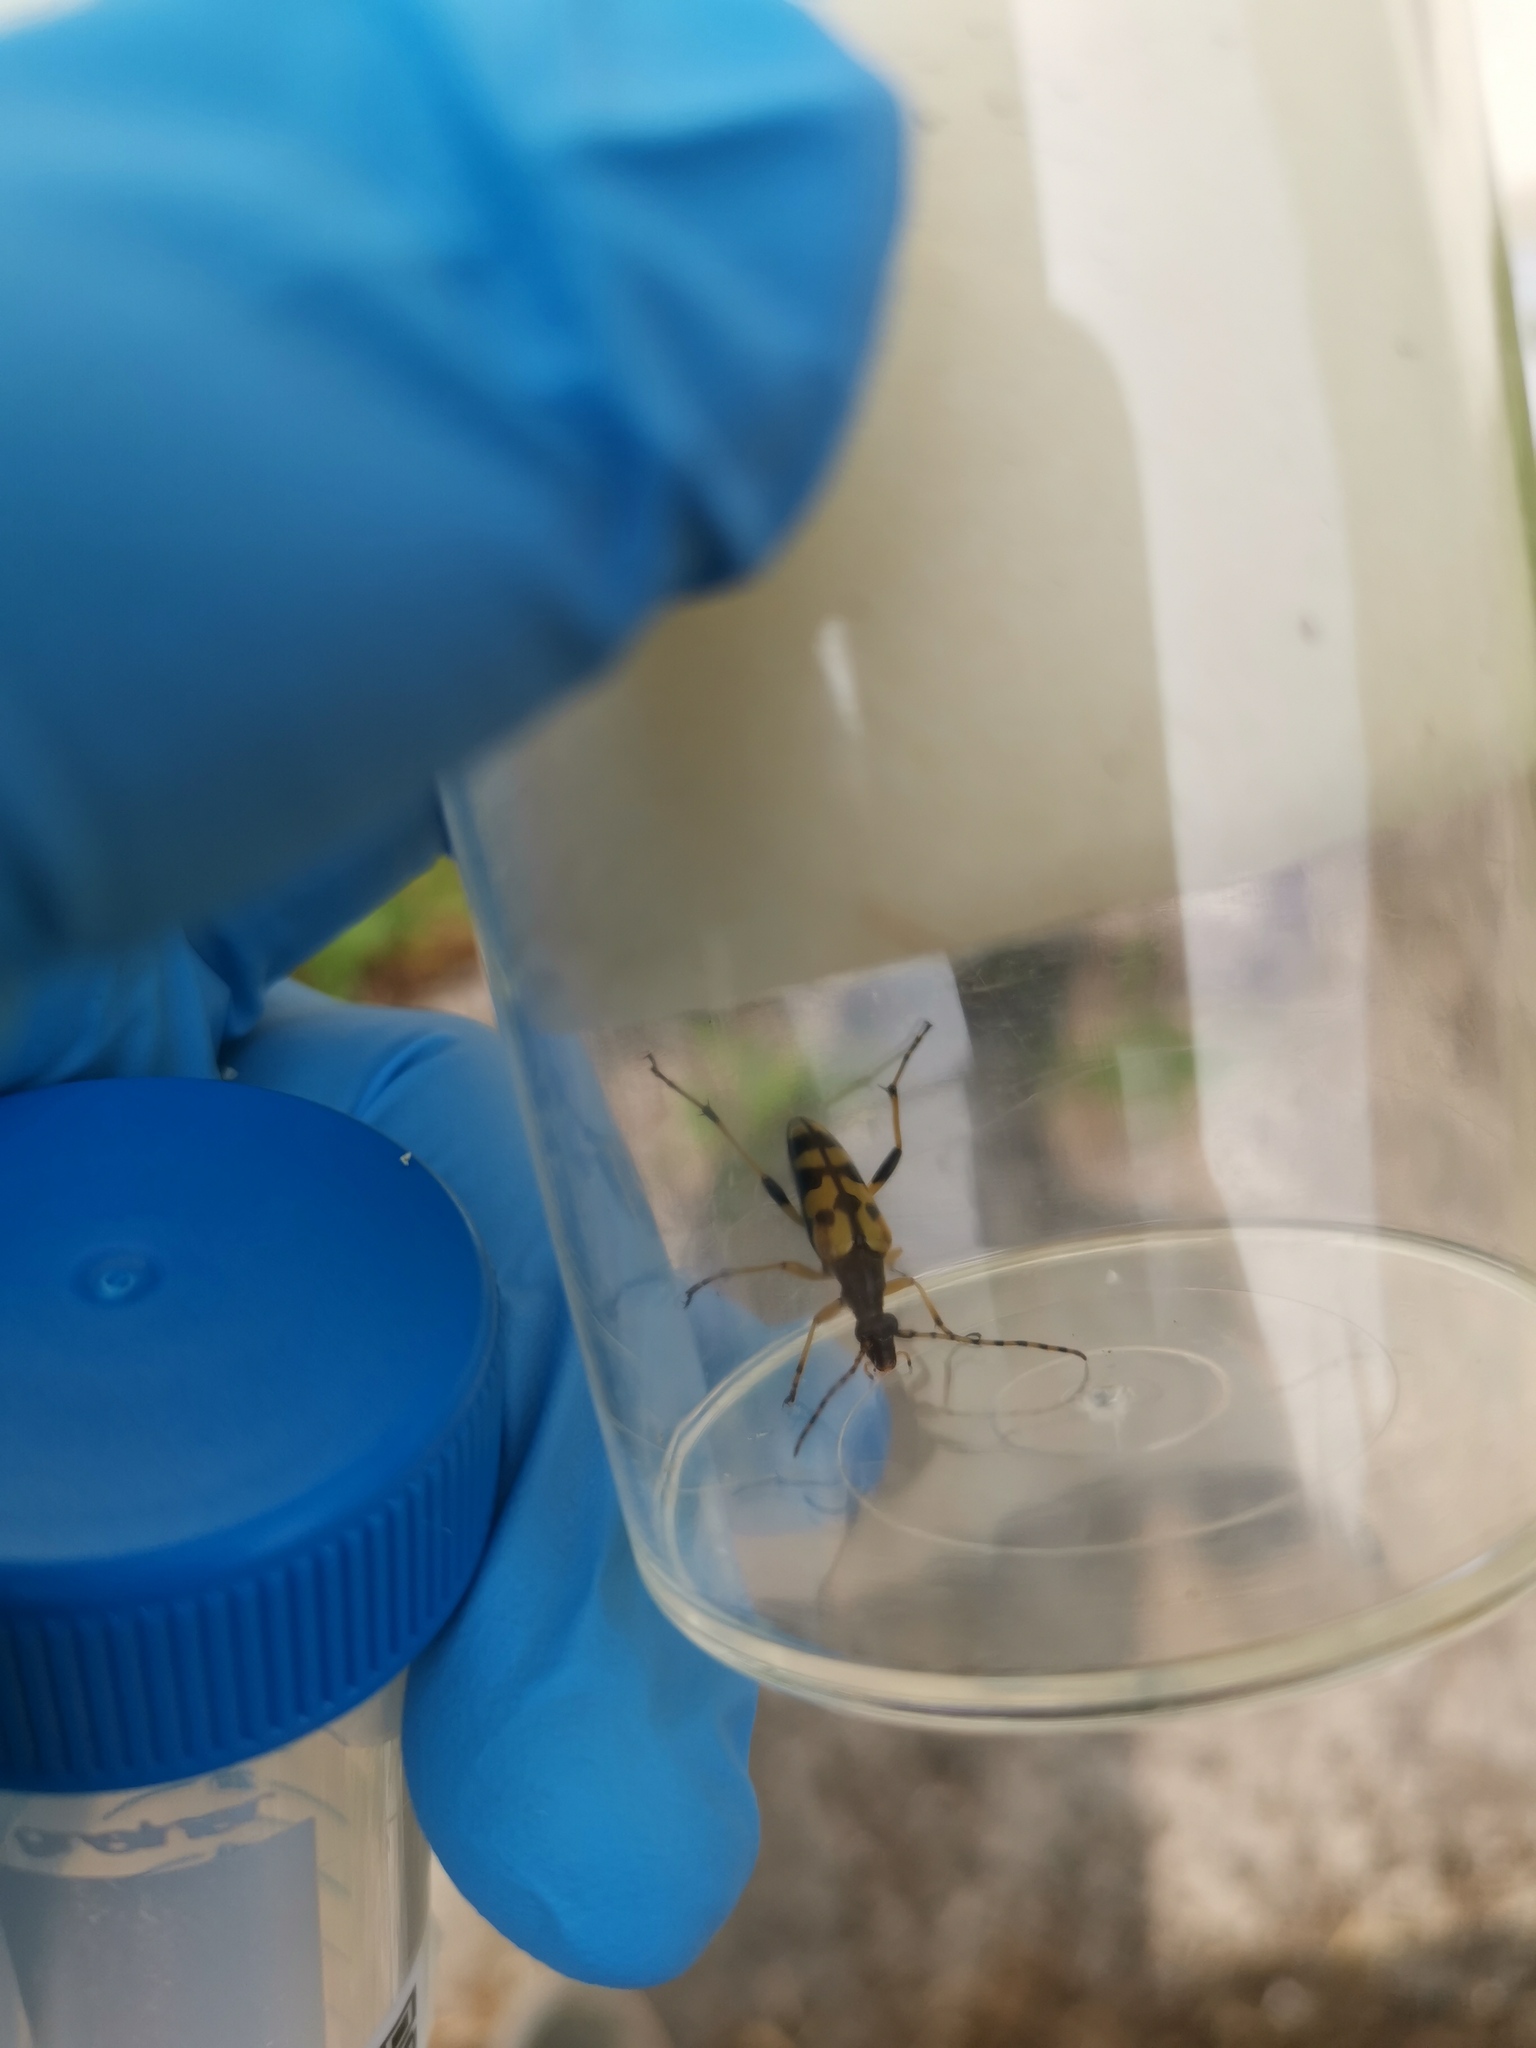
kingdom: Animalia
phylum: Arthropoda
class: Insecta
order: Coleoptera
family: Cerambycidae
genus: Rutpela
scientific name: Rutpela maculata
